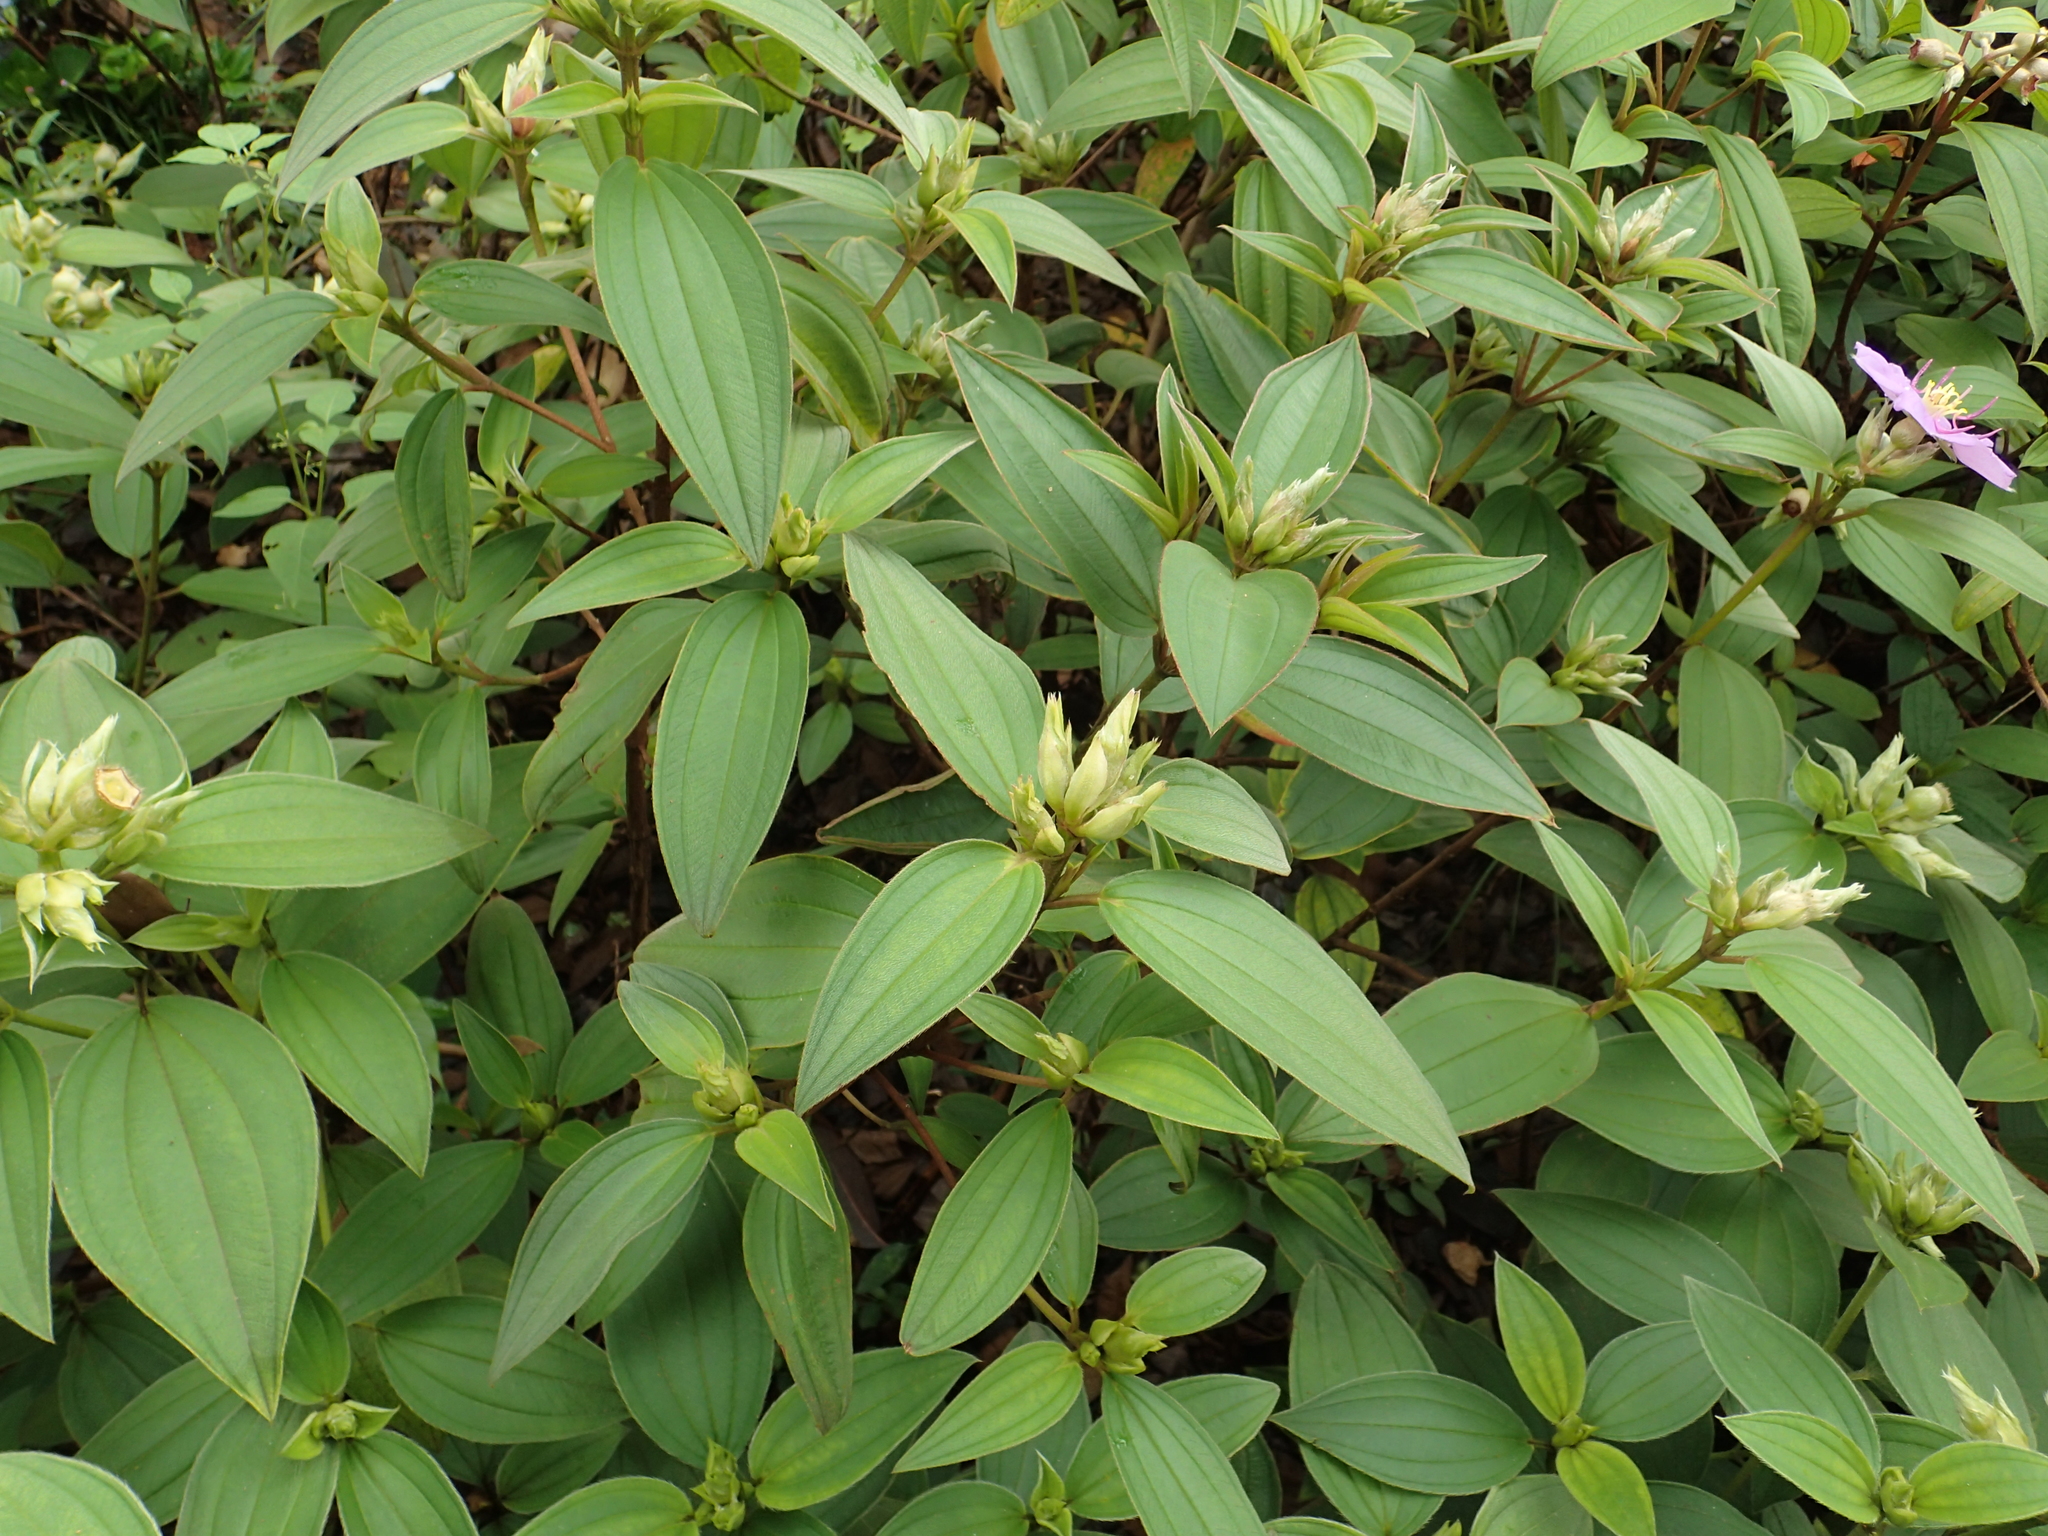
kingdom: Plantae
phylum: Tracheophyta
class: Magnoliopsida
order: Myrtales
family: Melastomataceae
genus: Melastoma
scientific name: Melastoma malabathricum
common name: Indian-rhododendron
